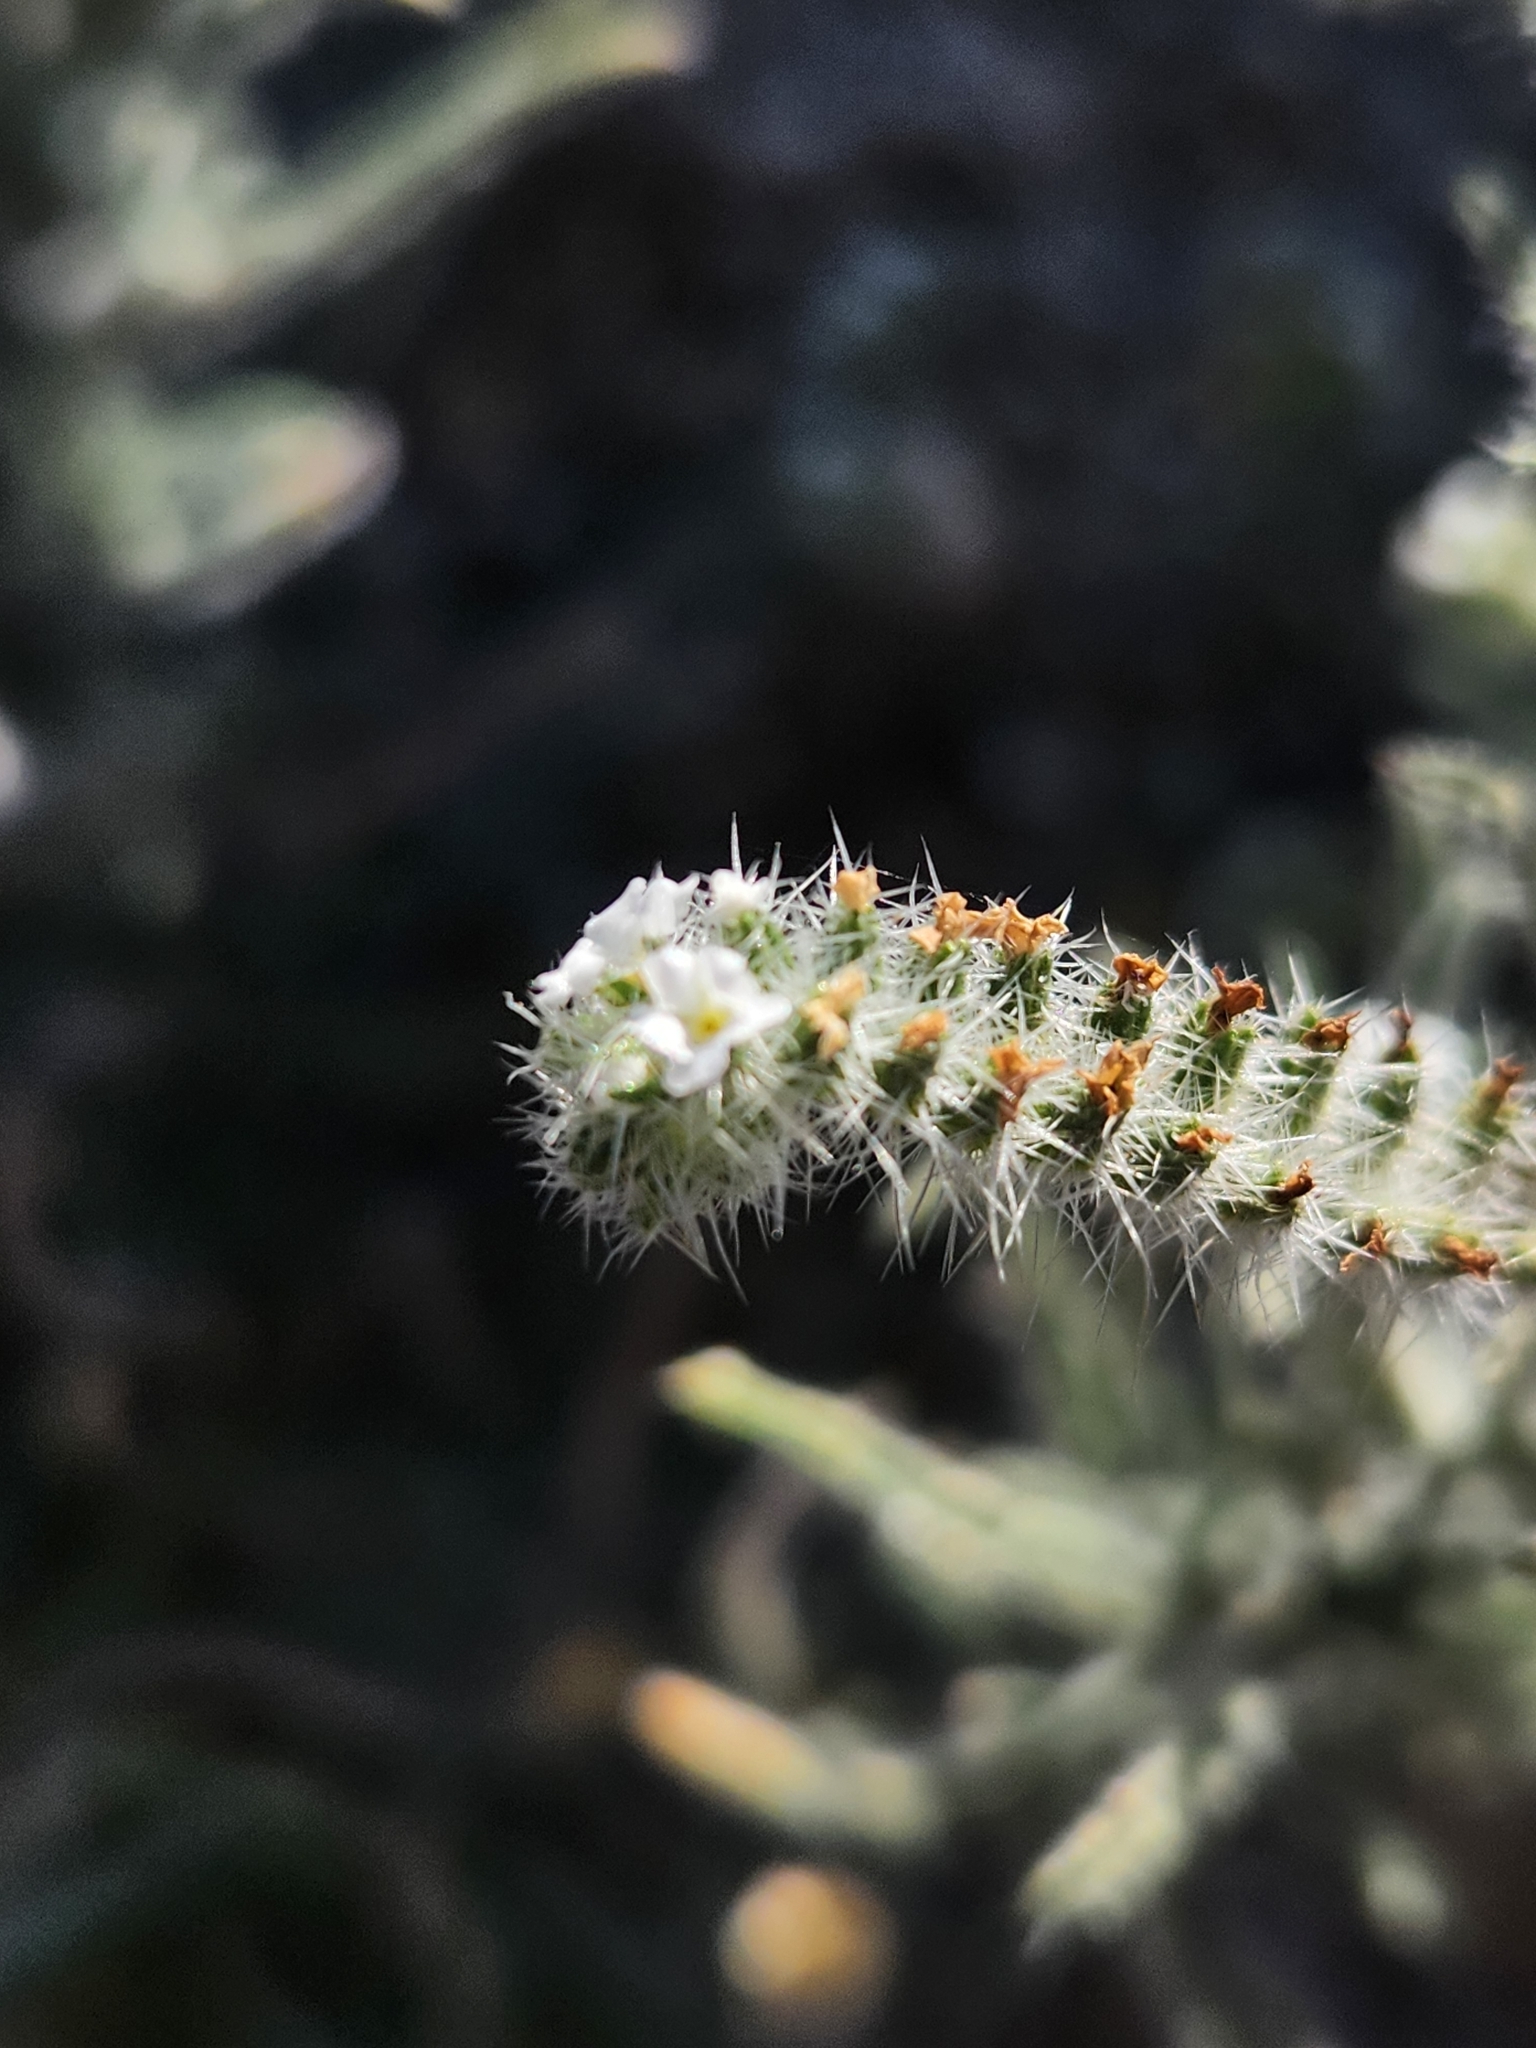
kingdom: Plantae
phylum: Tracheophyta
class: Magnoliopsida
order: Boraginales
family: Boraginaceae
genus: Johnstonella
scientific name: Johnstonella angustifolia
